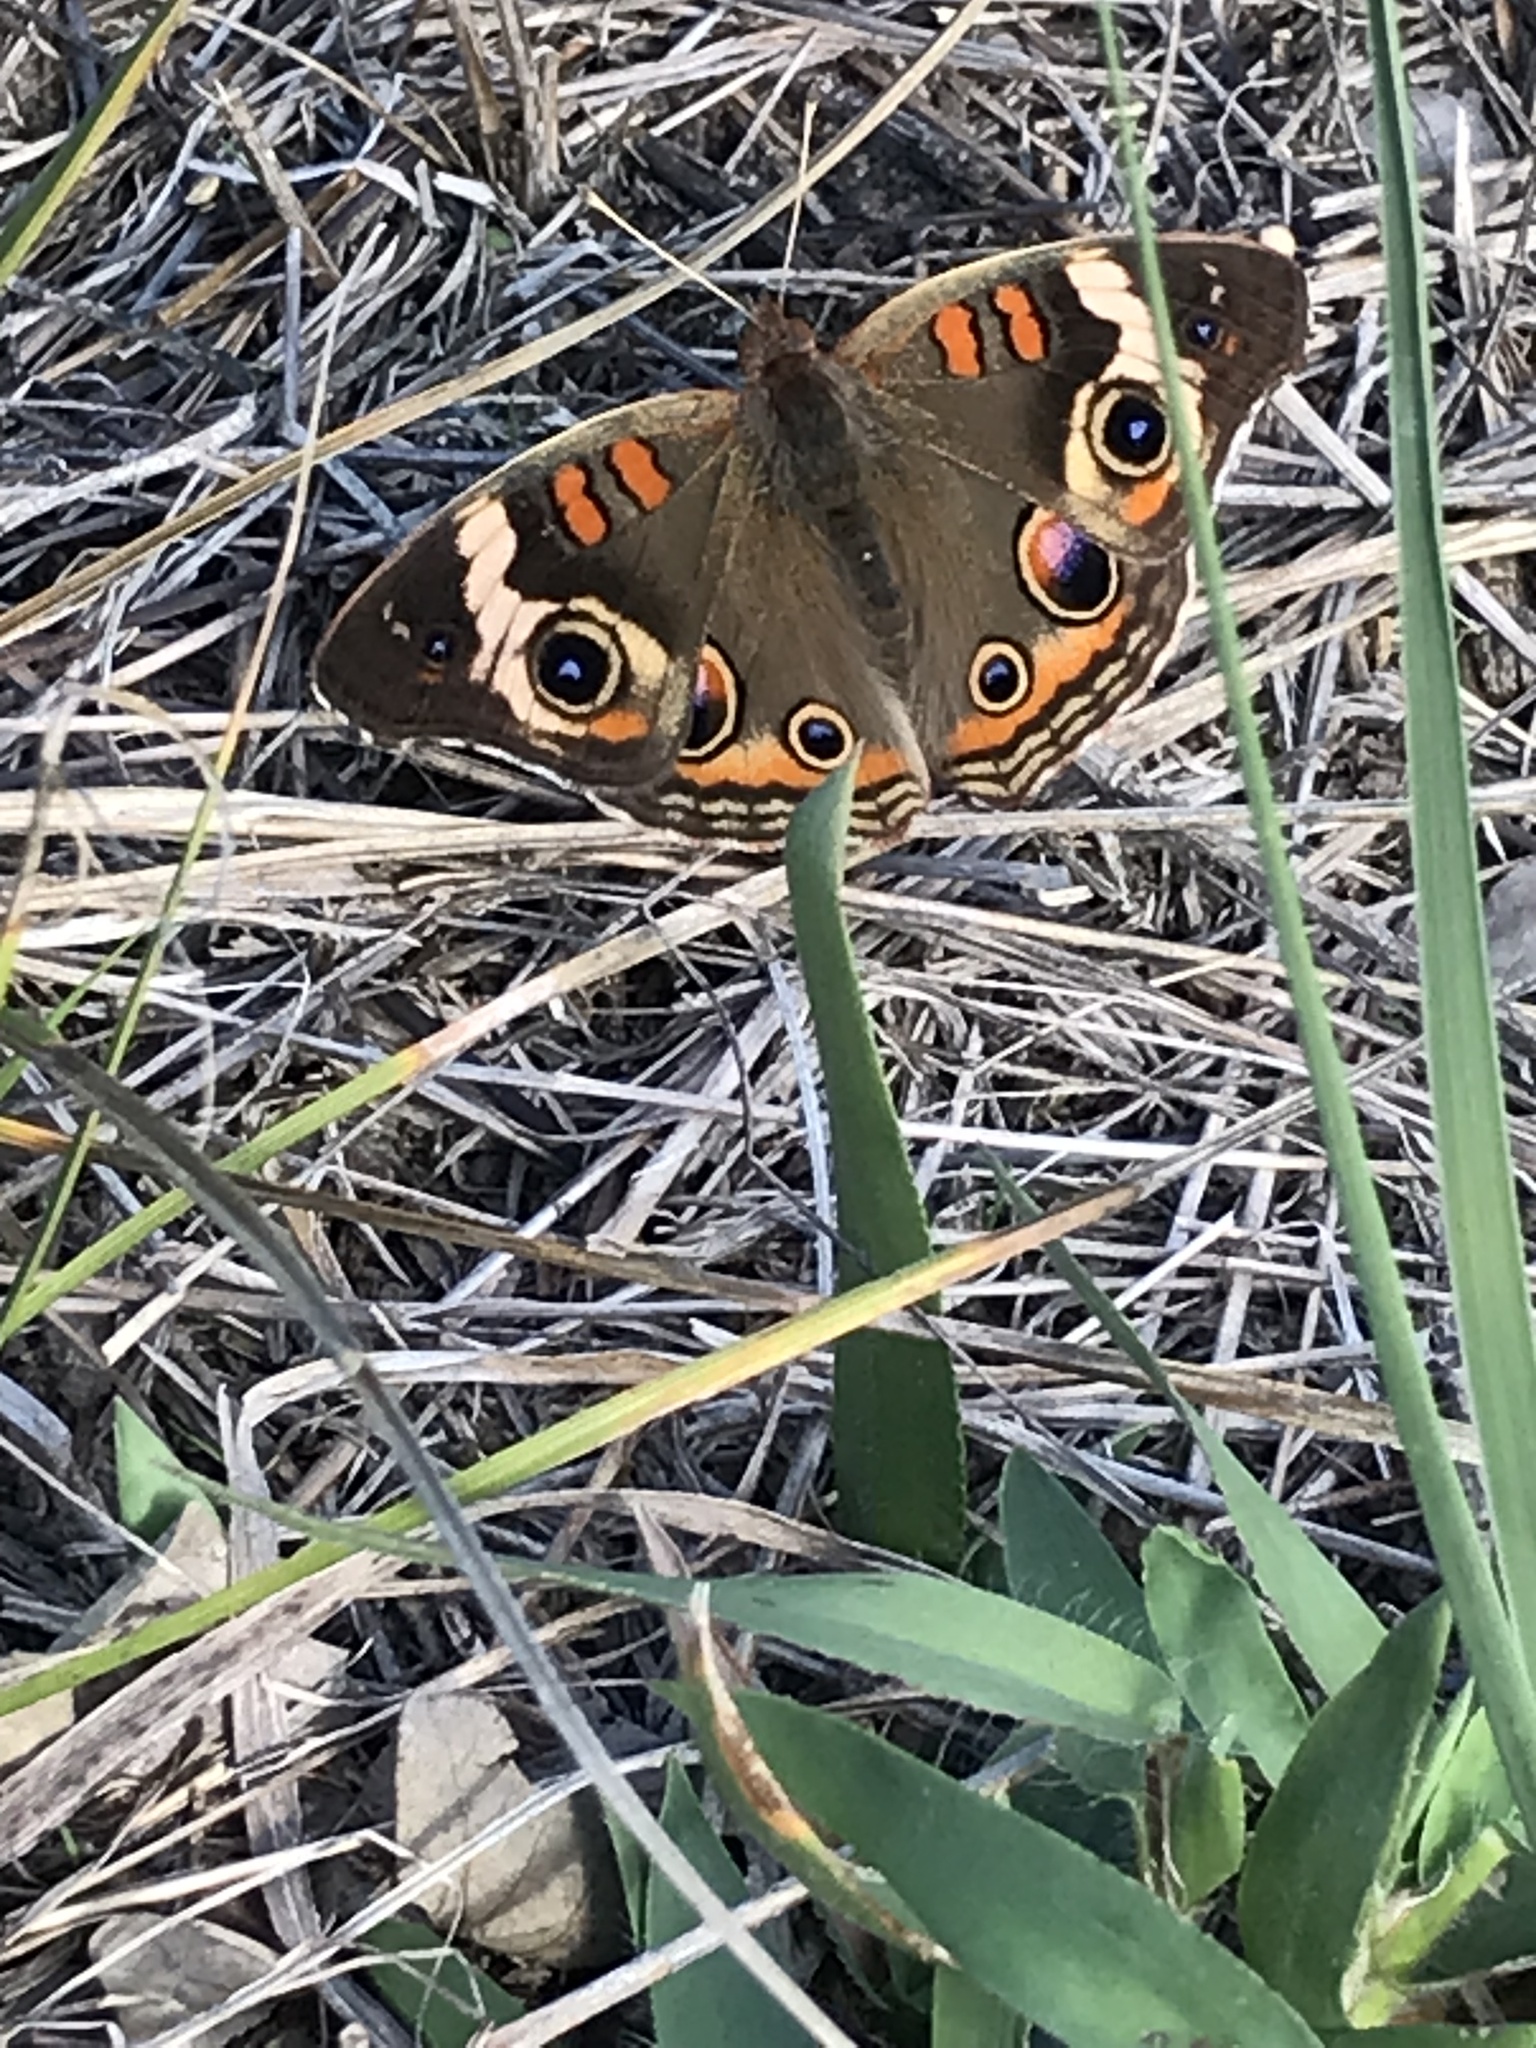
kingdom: Animalia
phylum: Arthropoda
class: Insecta
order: Lepidoptera
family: Nymphalidae
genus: Junonia
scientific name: Junonia coenia
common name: Common buckeye
